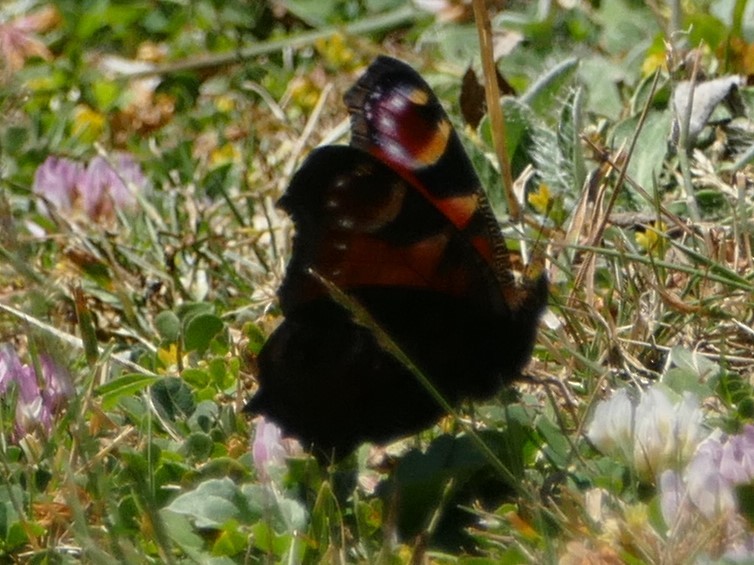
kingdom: Animalia
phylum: Arthropoda
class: Insecta
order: Lepidoptera
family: Nymphalidae
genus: Aglais
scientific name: Aglais io
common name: Peacock
